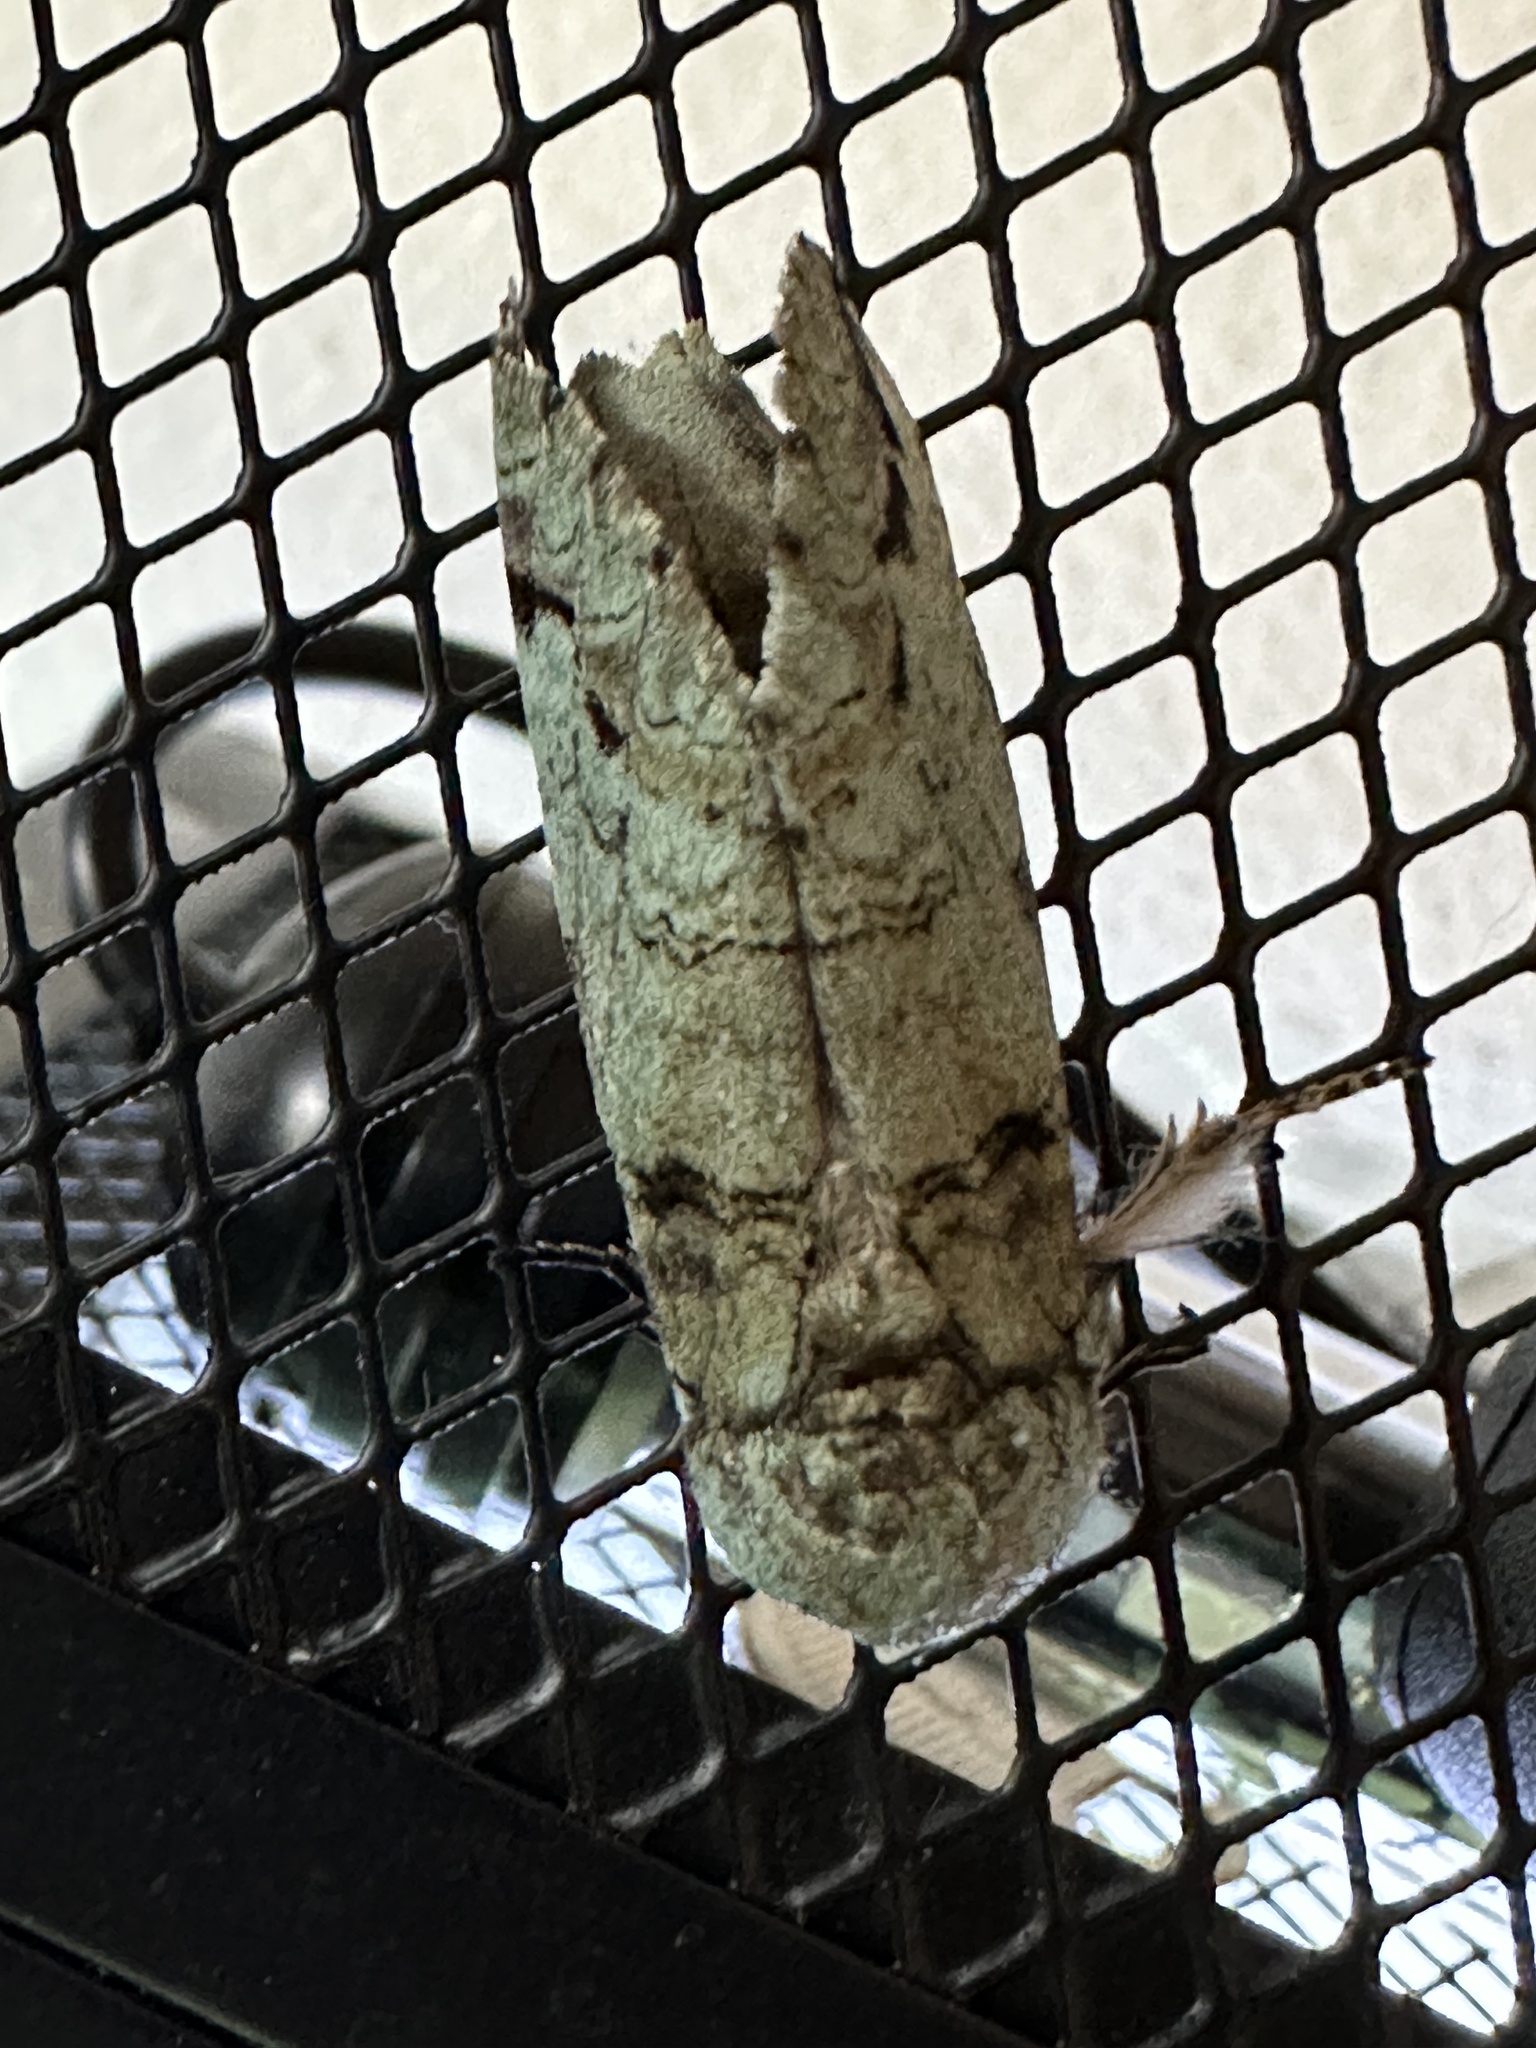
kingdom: Animalia
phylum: Arthropoda
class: Insecta
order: Lepidoptera
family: Notodontidae
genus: Heterocampa
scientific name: Heterocampa astartoides
